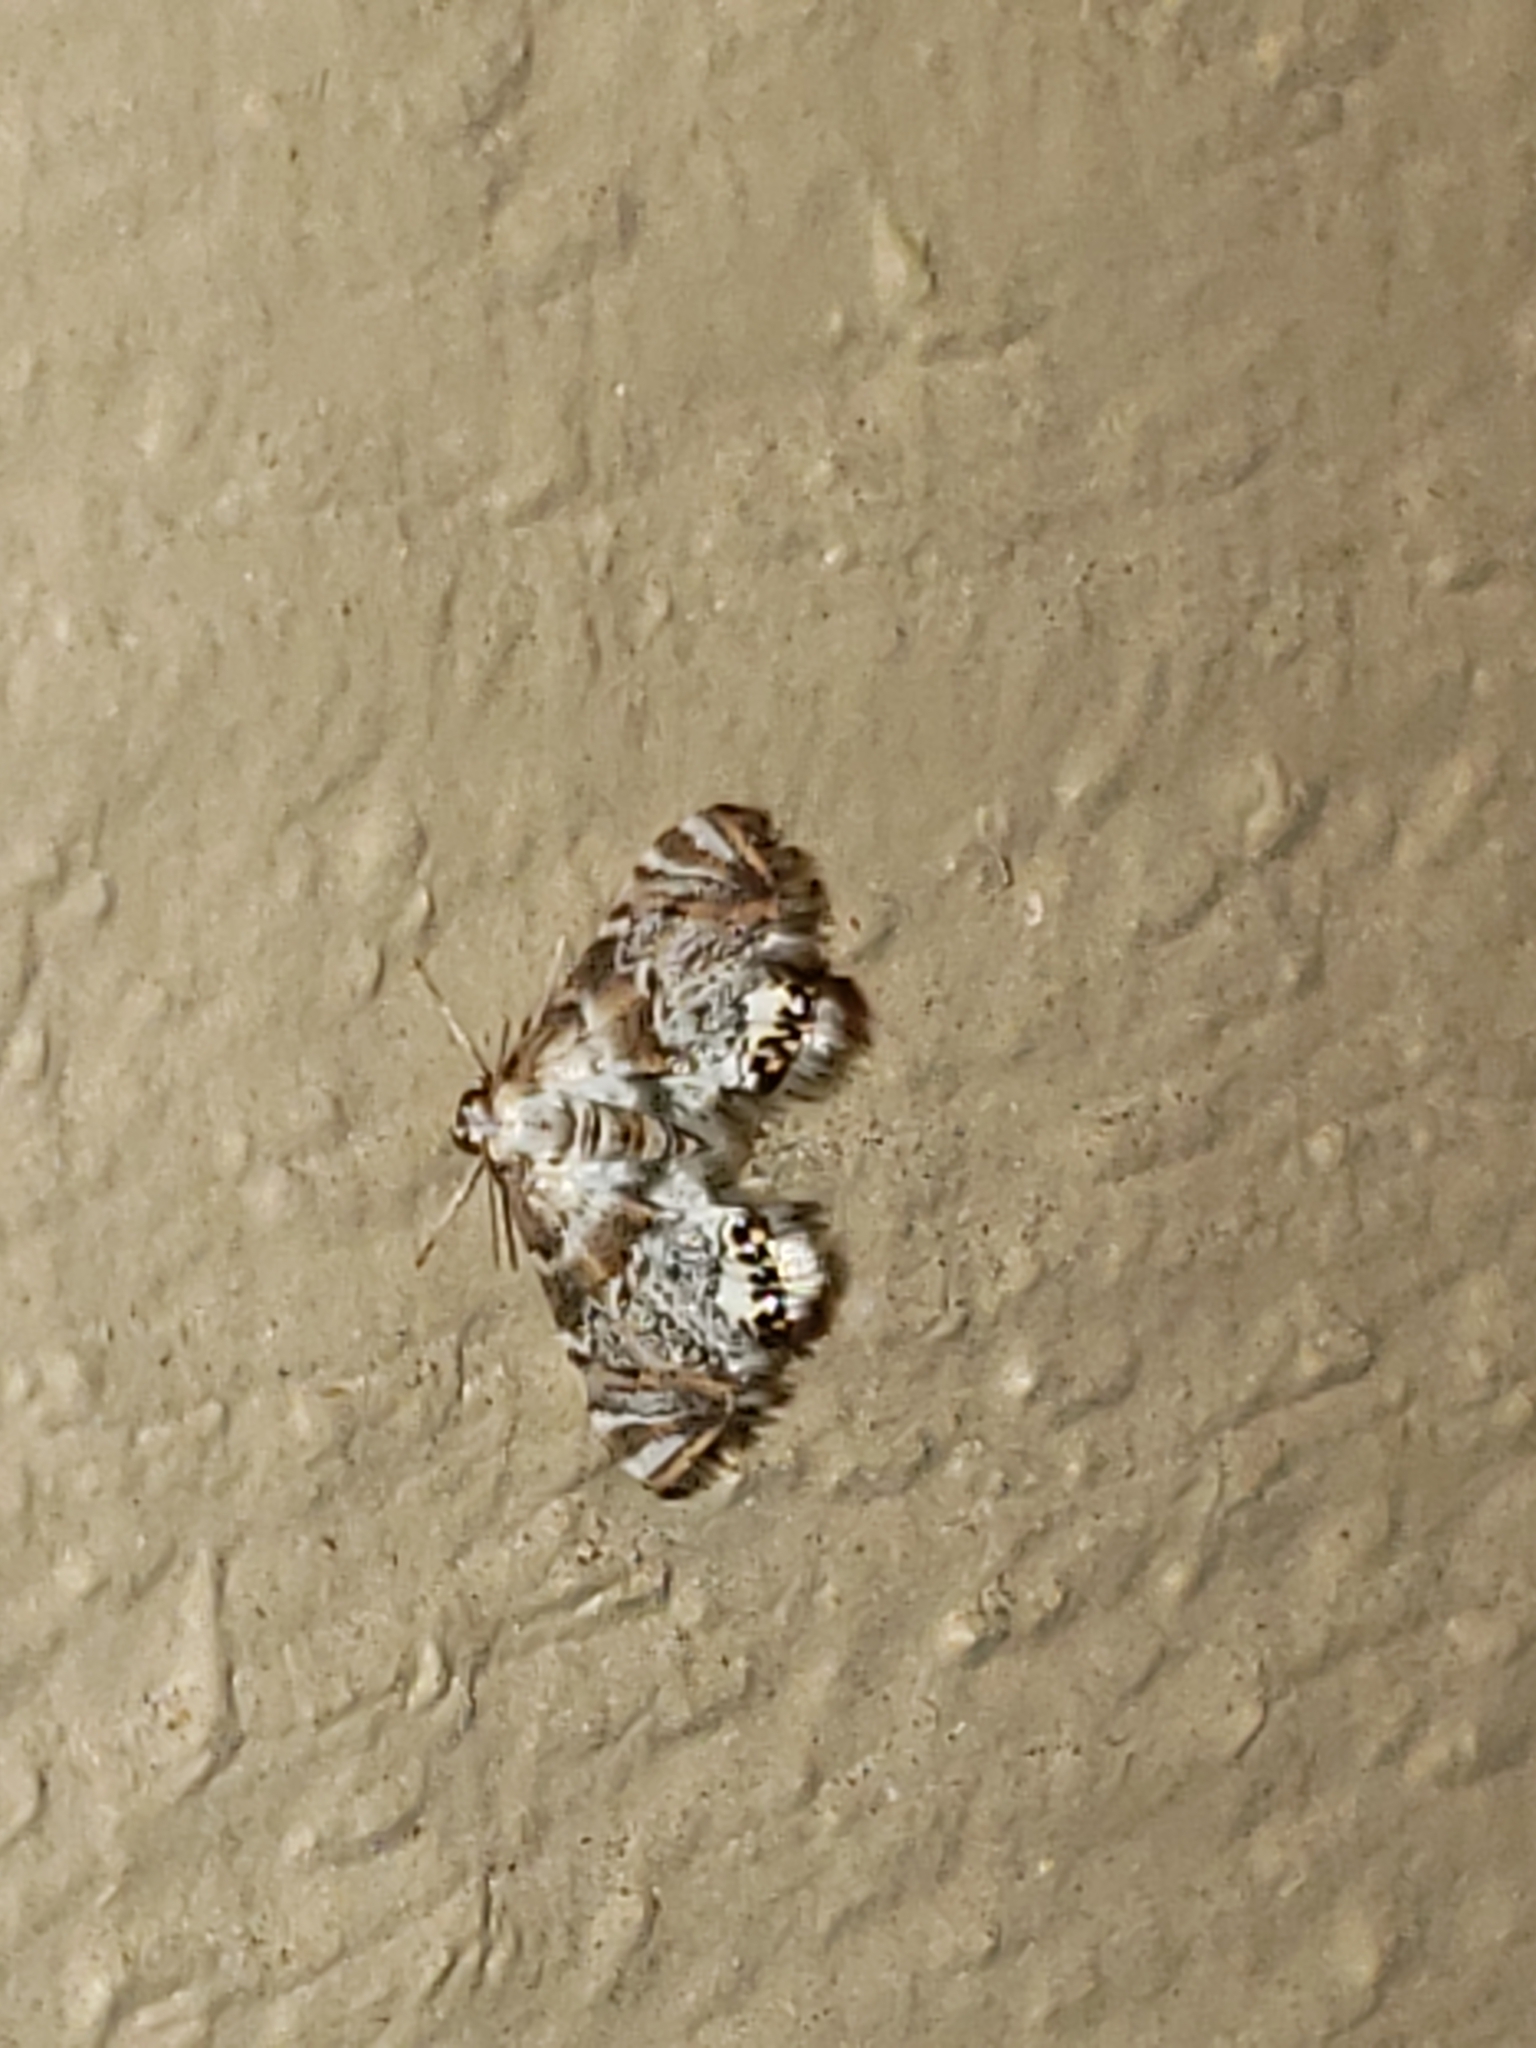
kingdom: Animalia
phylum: Arthropoda
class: Insecta
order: Lepidoptera
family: Crambidae
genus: Petrophila
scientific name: Petrophila fulicalis
